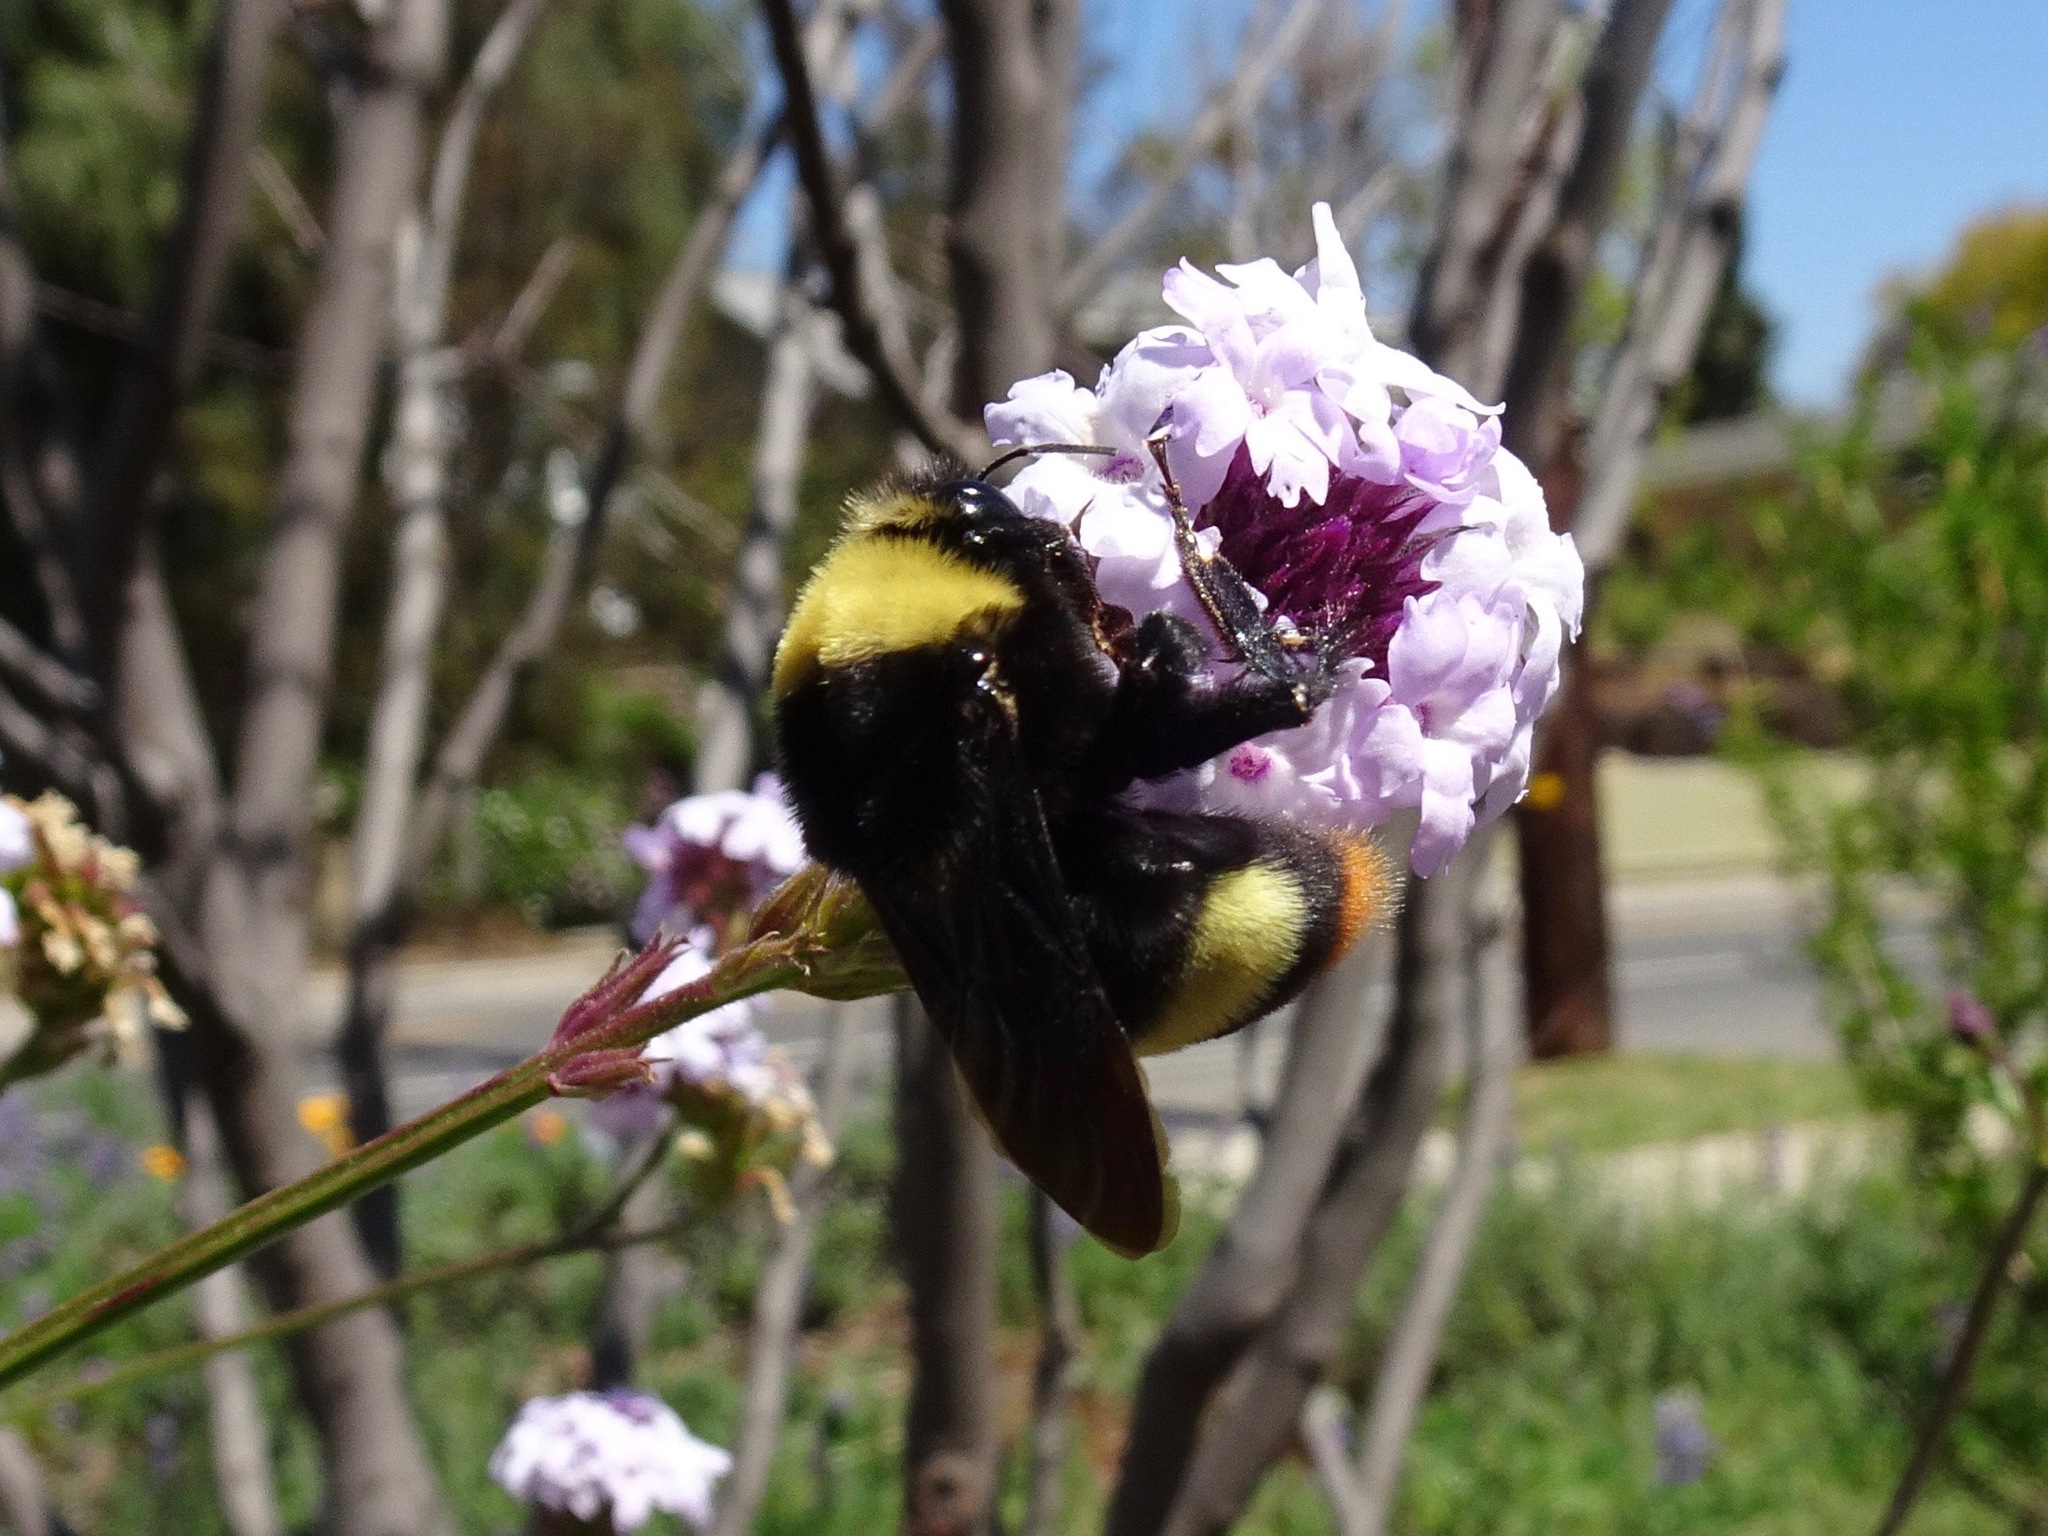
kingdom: Animalia
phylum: Arthropoda
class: Insecta
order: Hymenoptera
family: Apidae
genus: Bombus
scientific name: Bombus crotchii
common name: Crotch bumble bee
